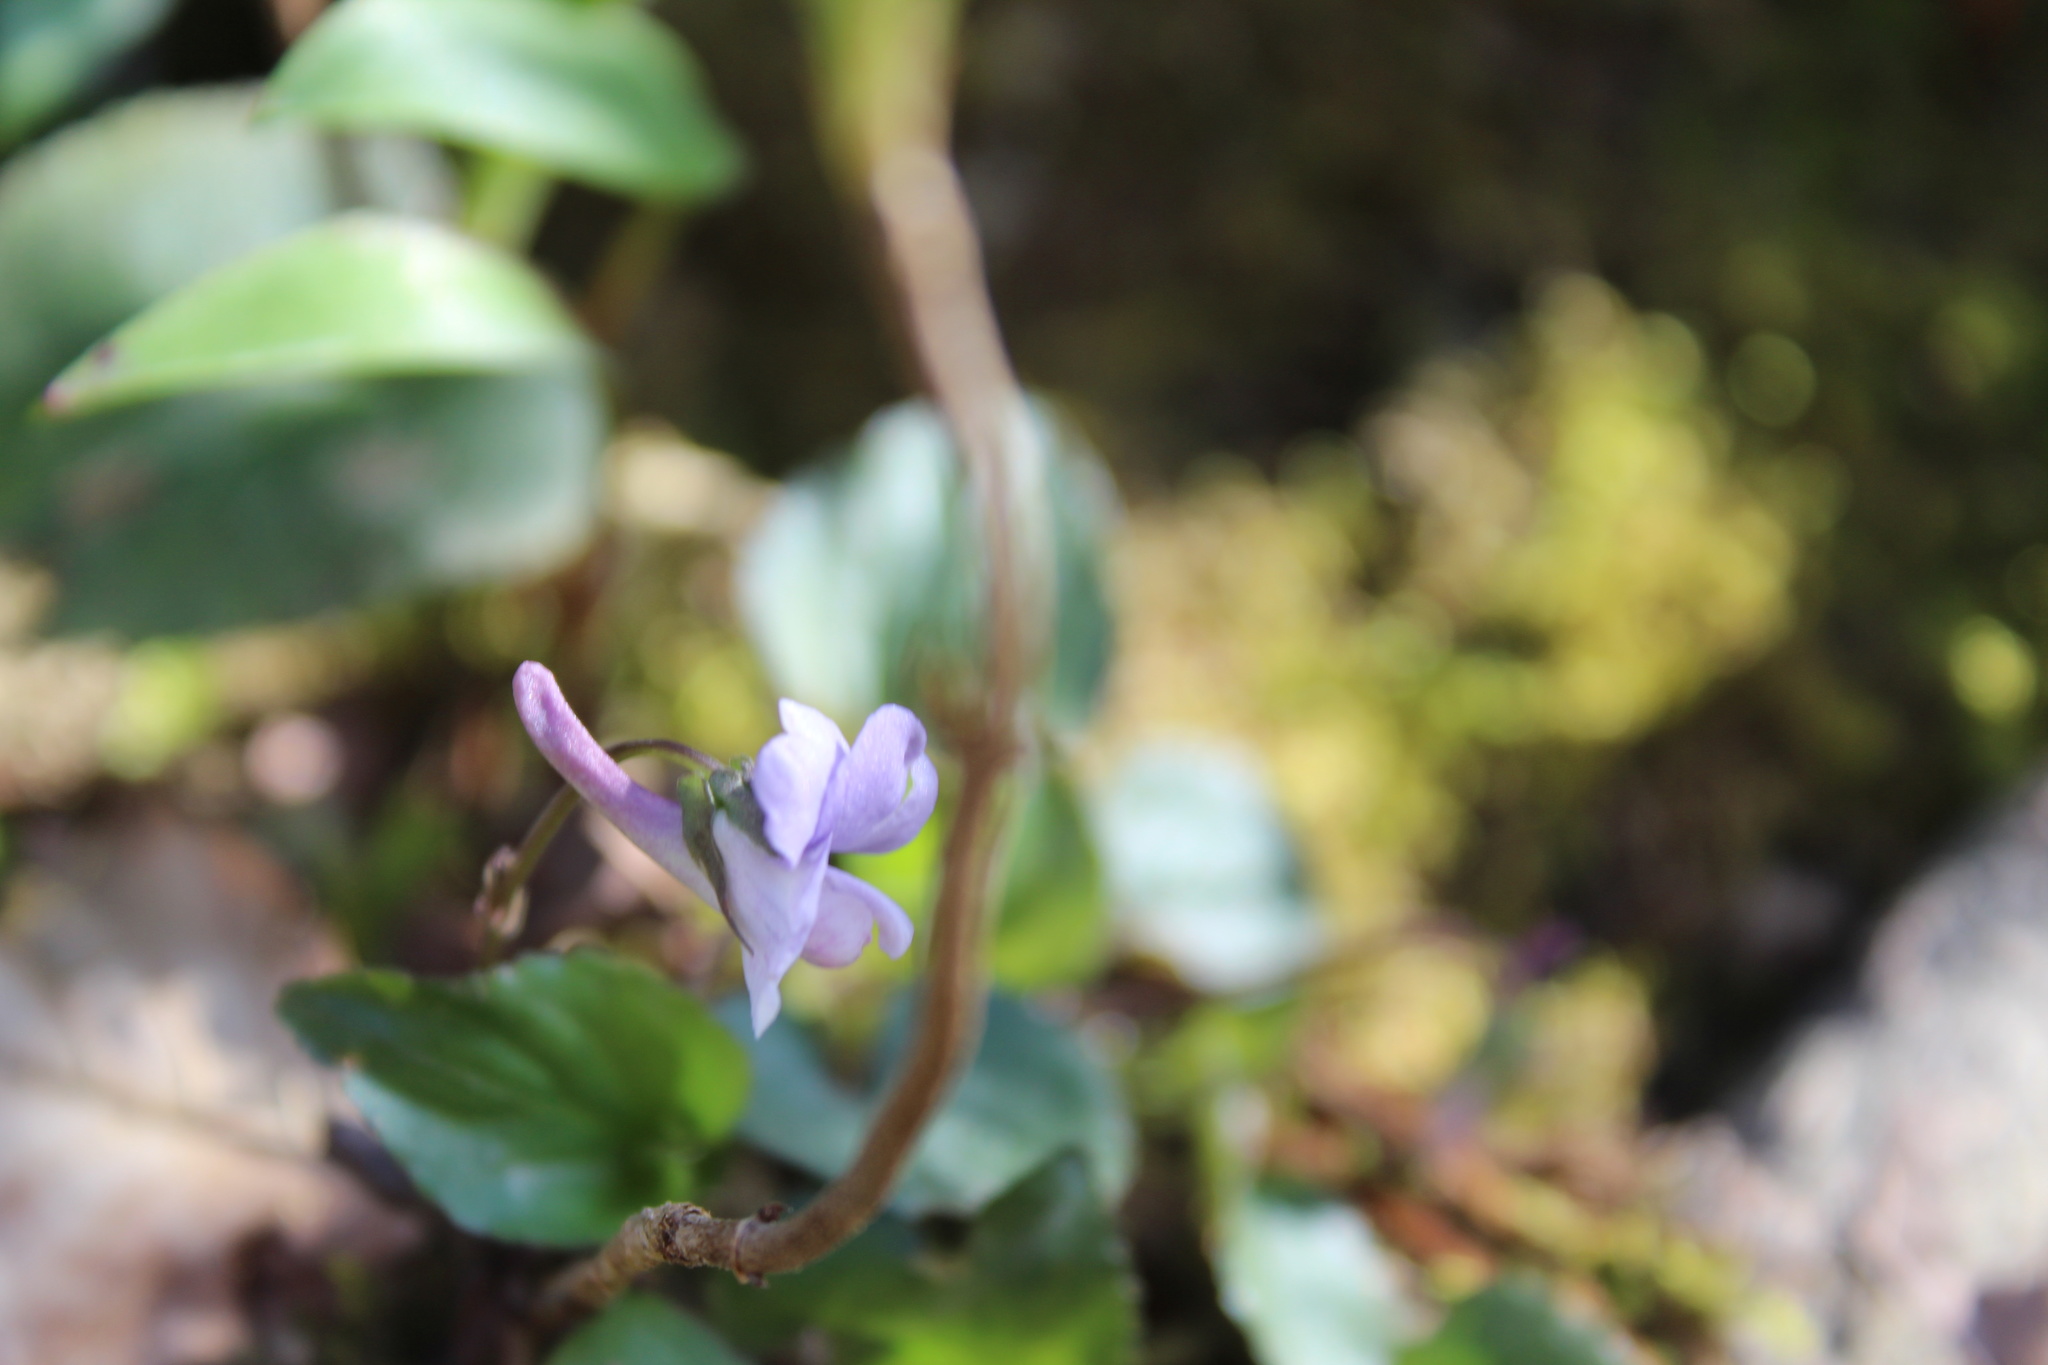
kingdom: Plantae
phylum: Tracheophyta
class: Magnoliopsida
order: Malpighiales
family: Violaceae
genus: Viola
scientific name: Viola rostrata
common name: Long-spur violet
